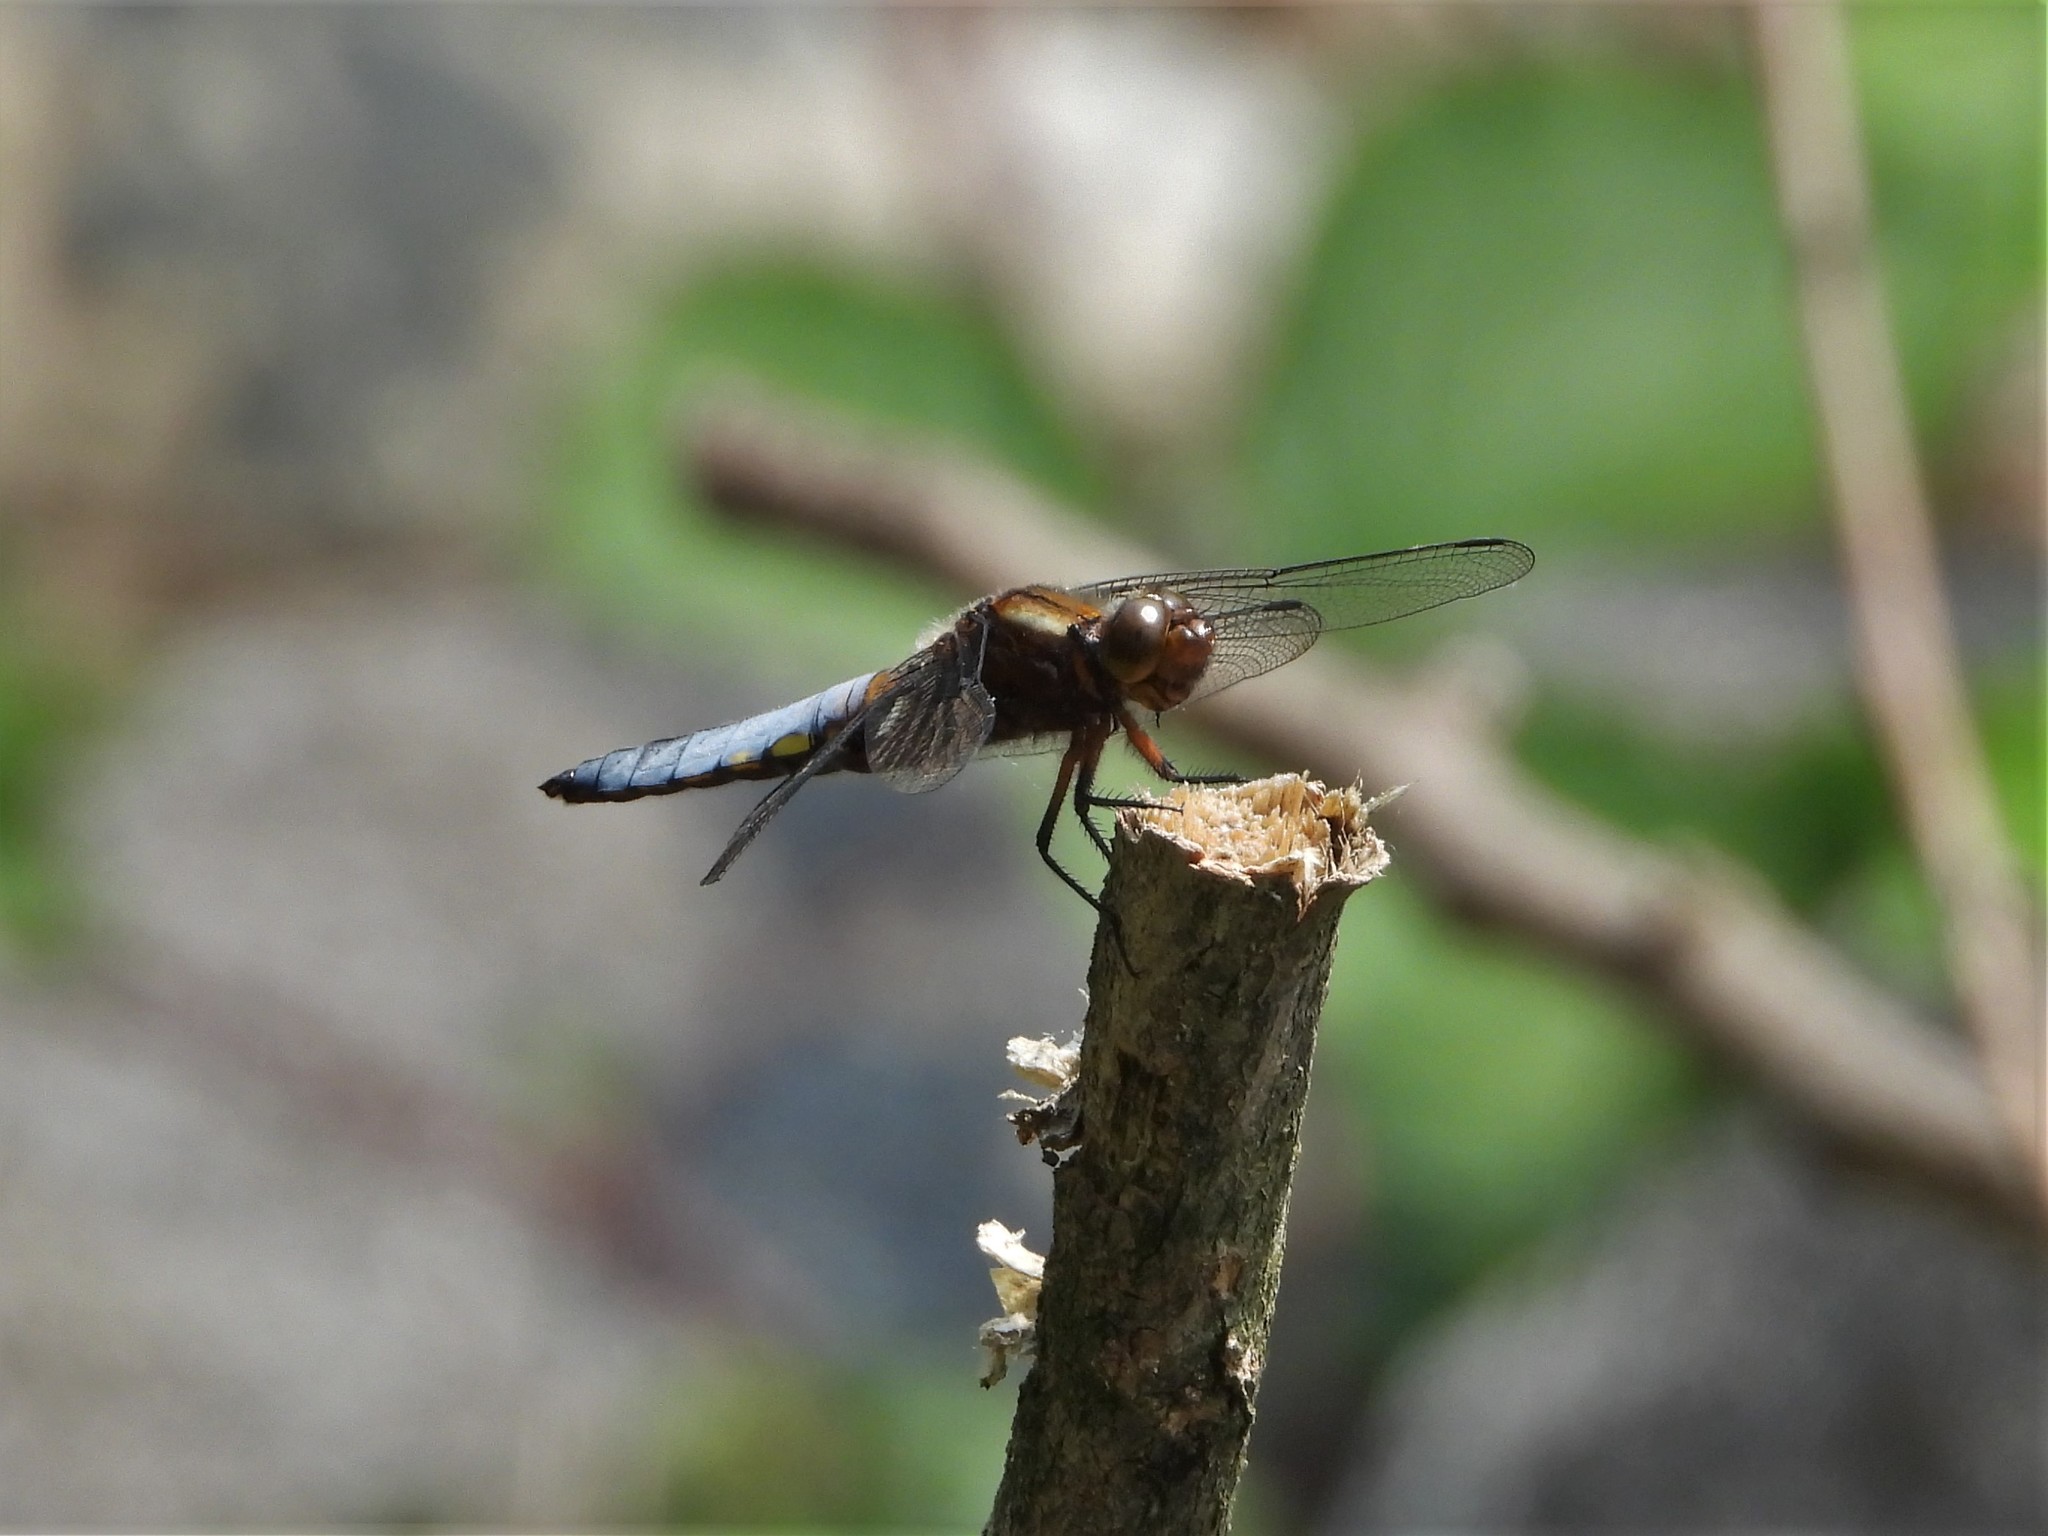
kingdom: Animalia
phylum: Arthropoda
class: Insecta
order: Odonata
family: Libellulidae
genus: Libellula
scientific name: Libellula depressa
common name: Broad-bodied chaser
